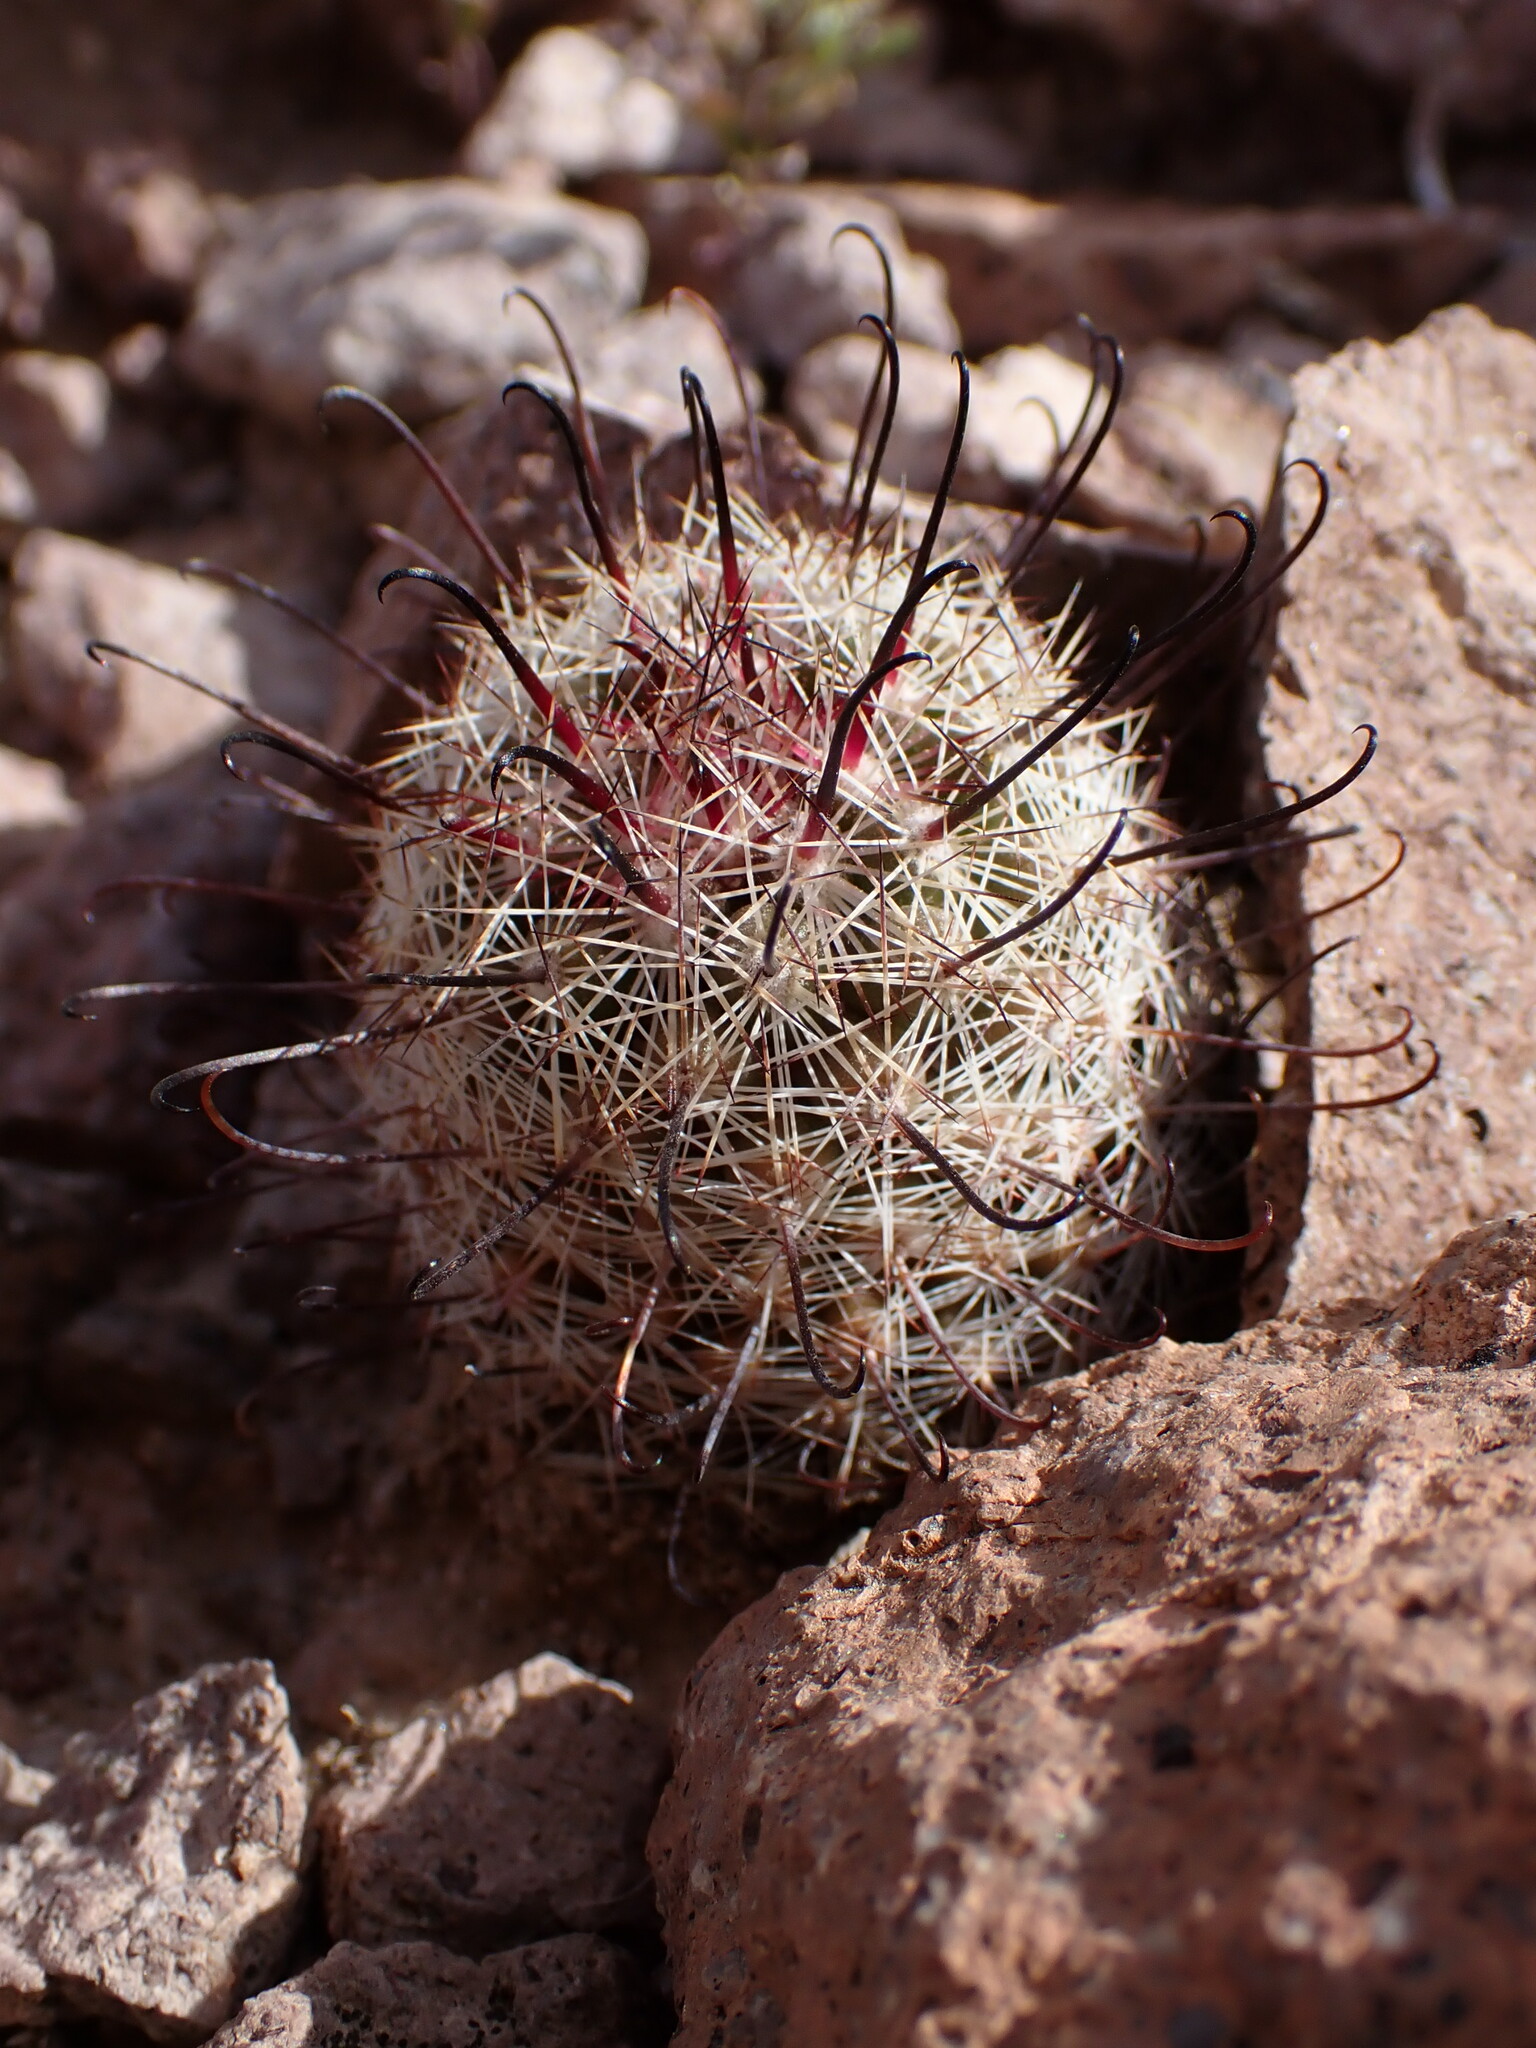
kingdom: Plantae
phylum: Tracheophyta
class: Magnoliopsida
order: Caryophyllales
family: Cactaceae
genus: Cochemiea
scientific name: Cochemiea grahamii
